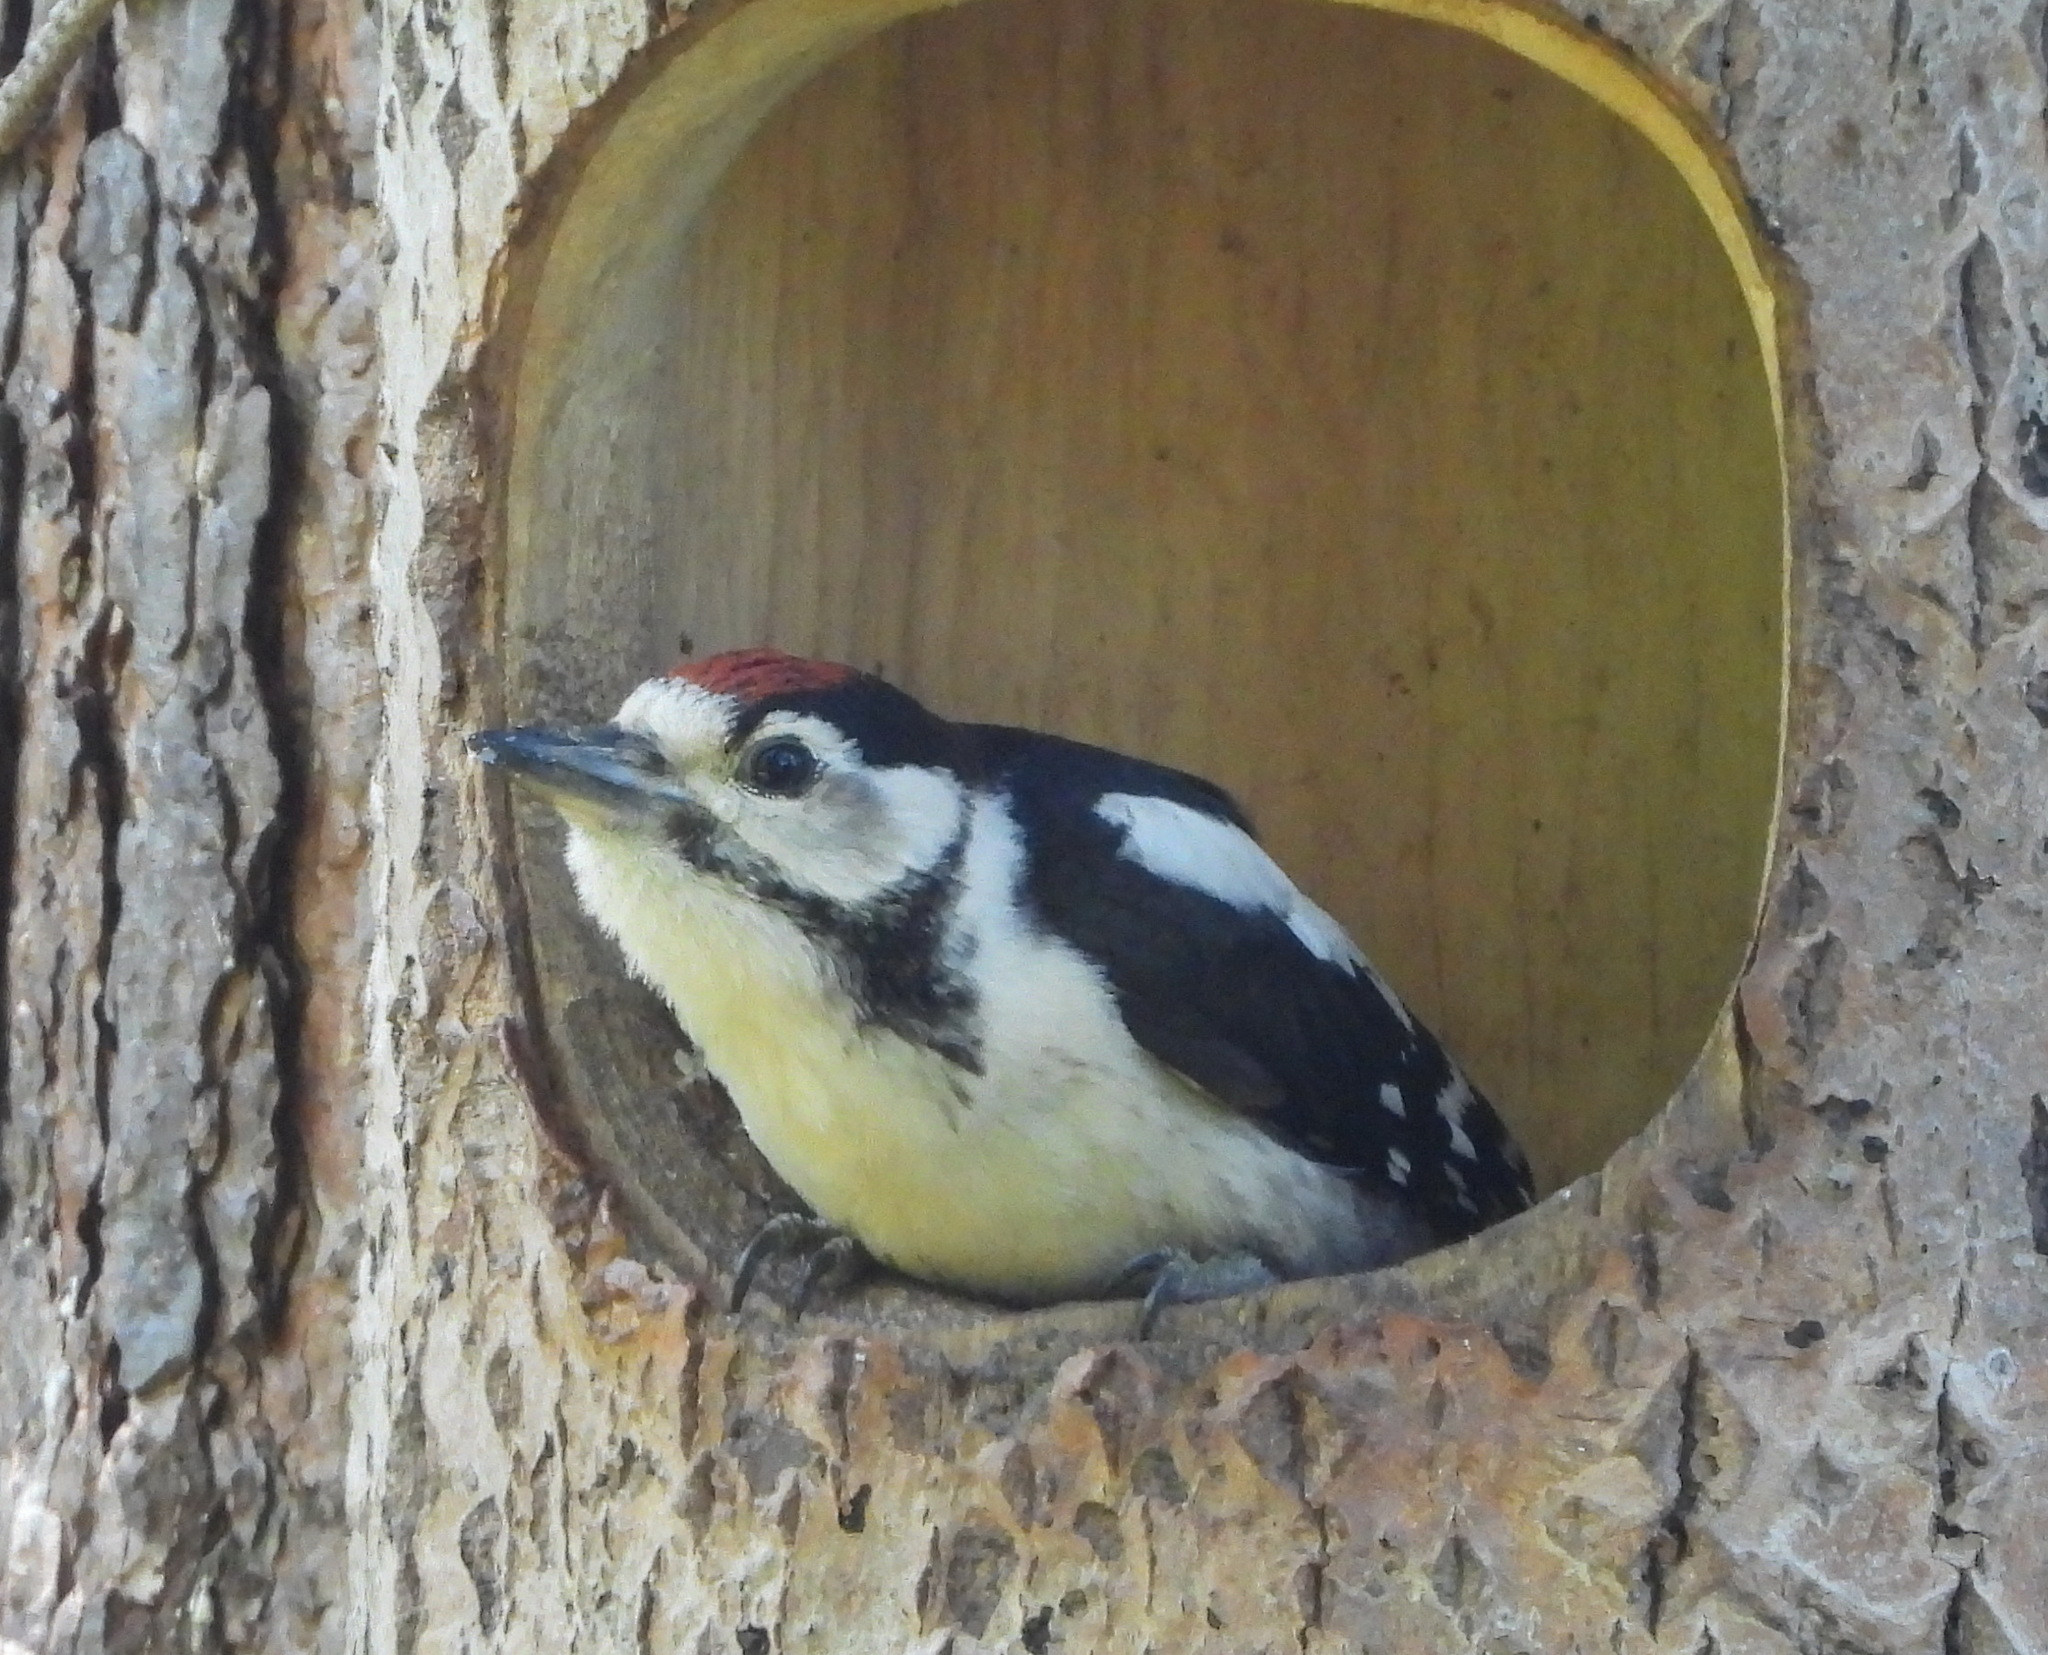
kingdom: Animalia
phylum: Chordata
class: Aves
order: Piciformes
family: Picidae
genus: Dendrocopos
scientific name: Dendrocopos major
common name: Great spotted woodpecker
